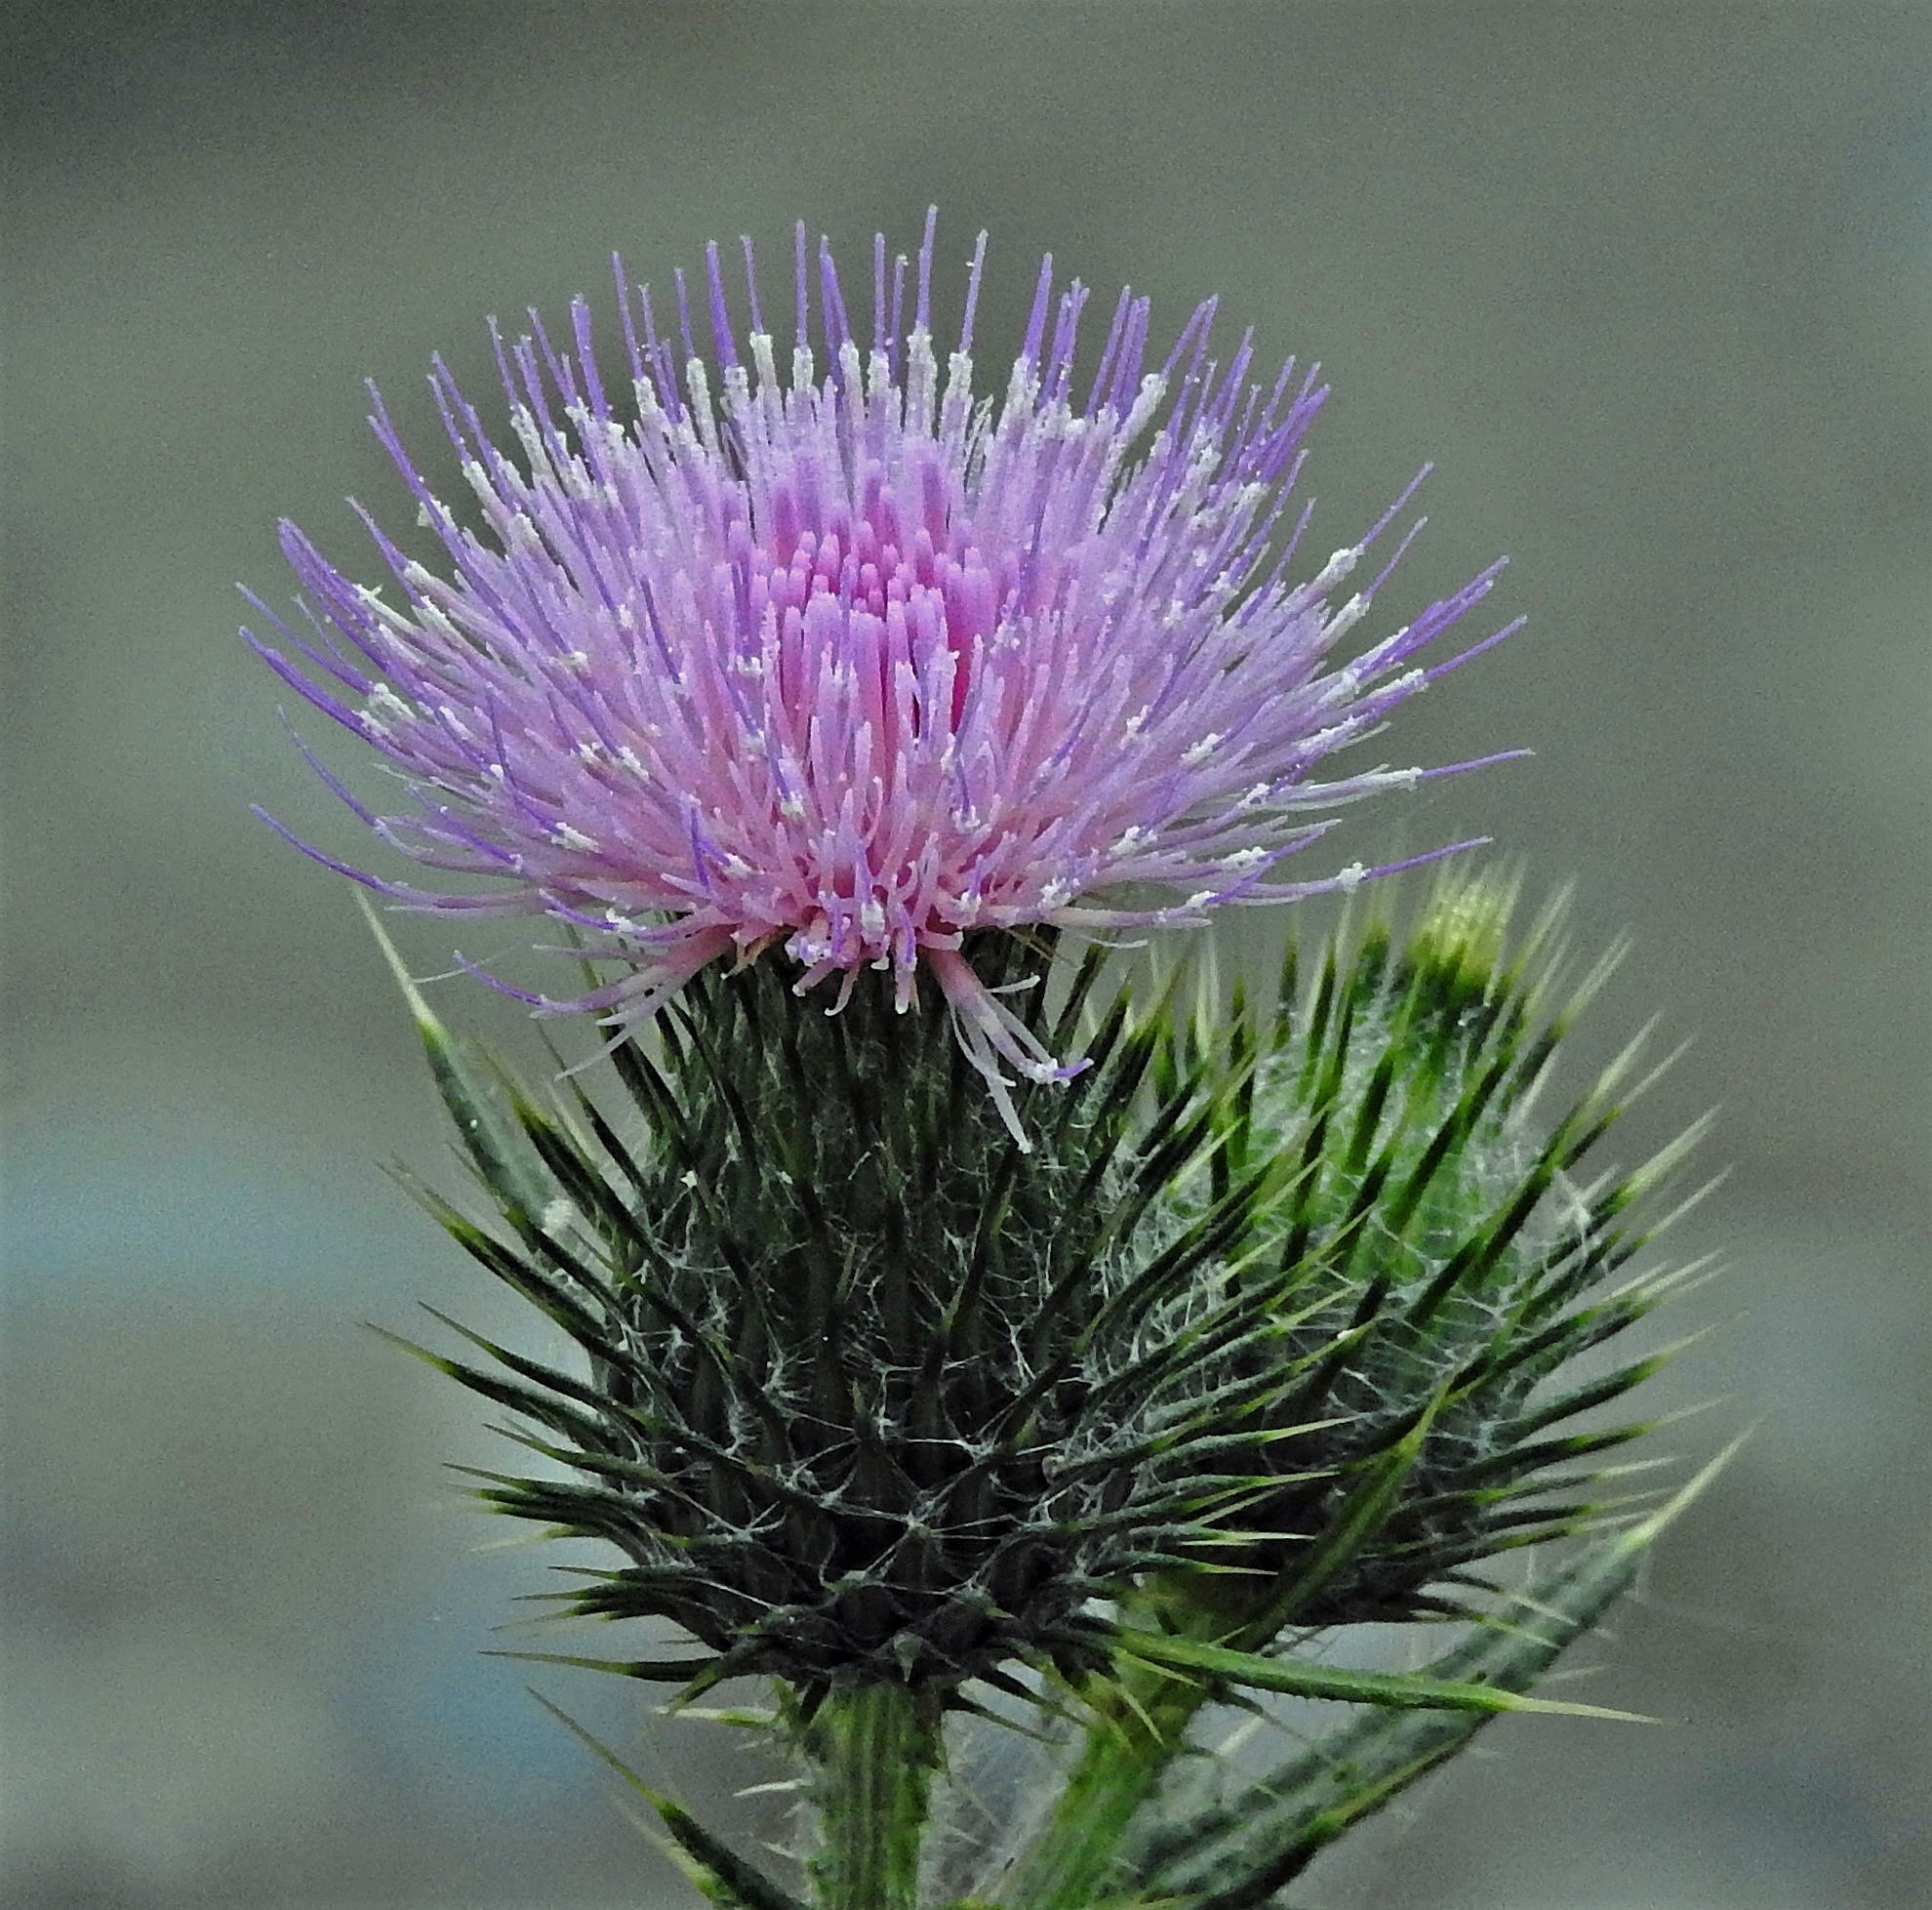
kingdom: Plantae
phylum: Tracheophyta
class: Magnoliopsida
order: Asterales
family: Asteraceae
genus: Cirsium
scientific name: Cirsium vulgare
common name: Bull thistle
